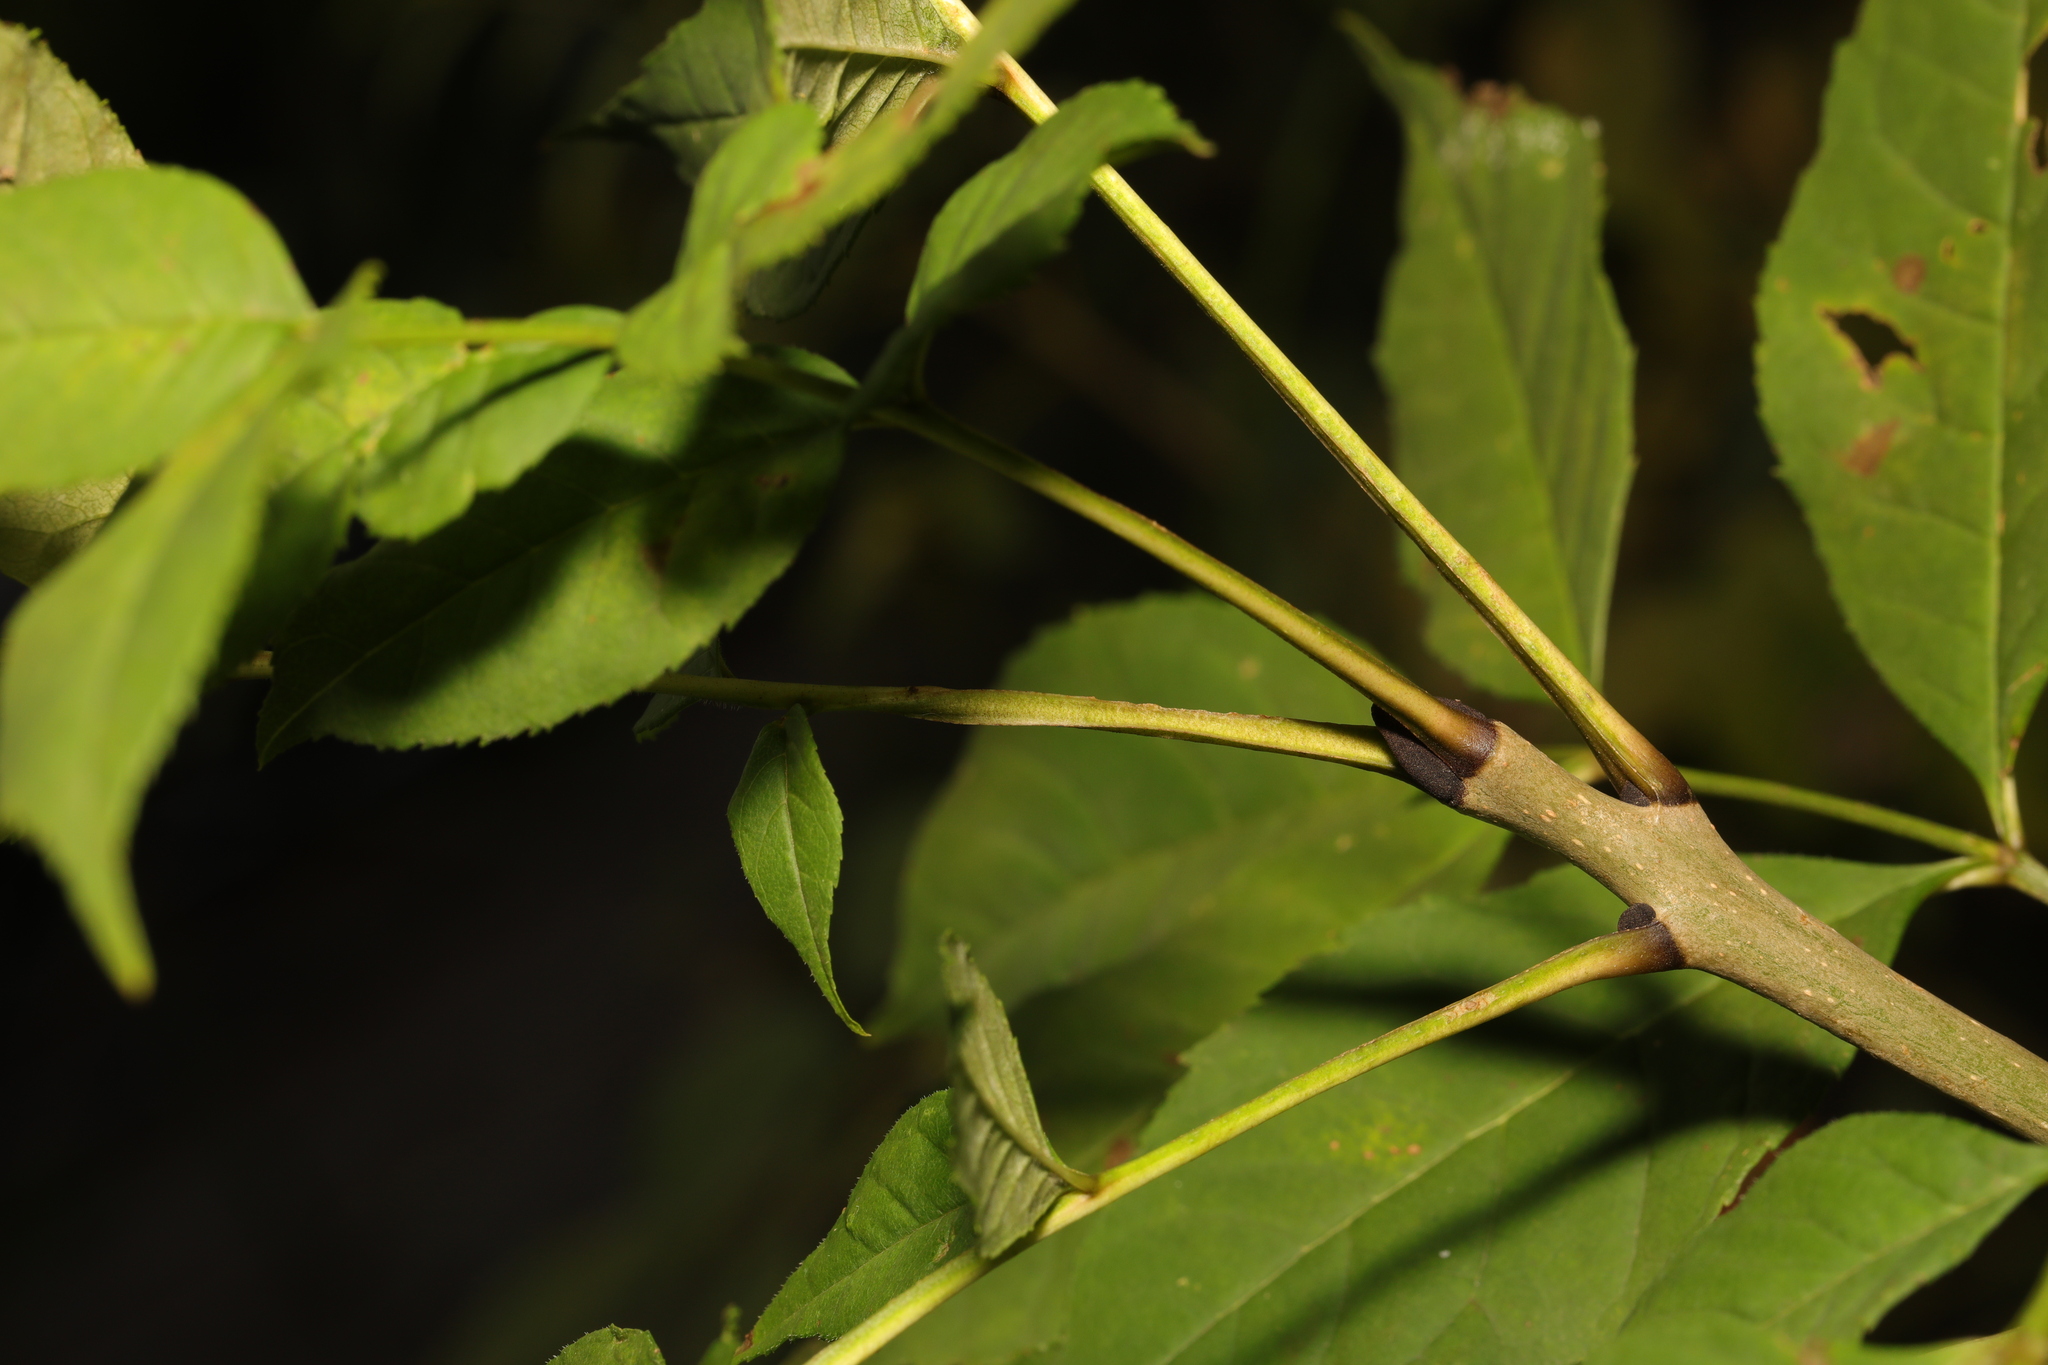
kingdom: Plantae
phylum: Tracheophyta
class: Magnoliopsida
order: Lamiales
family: Oleaceae
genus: Fraxinus
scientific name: Fraxinus excelsior
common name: European ash
